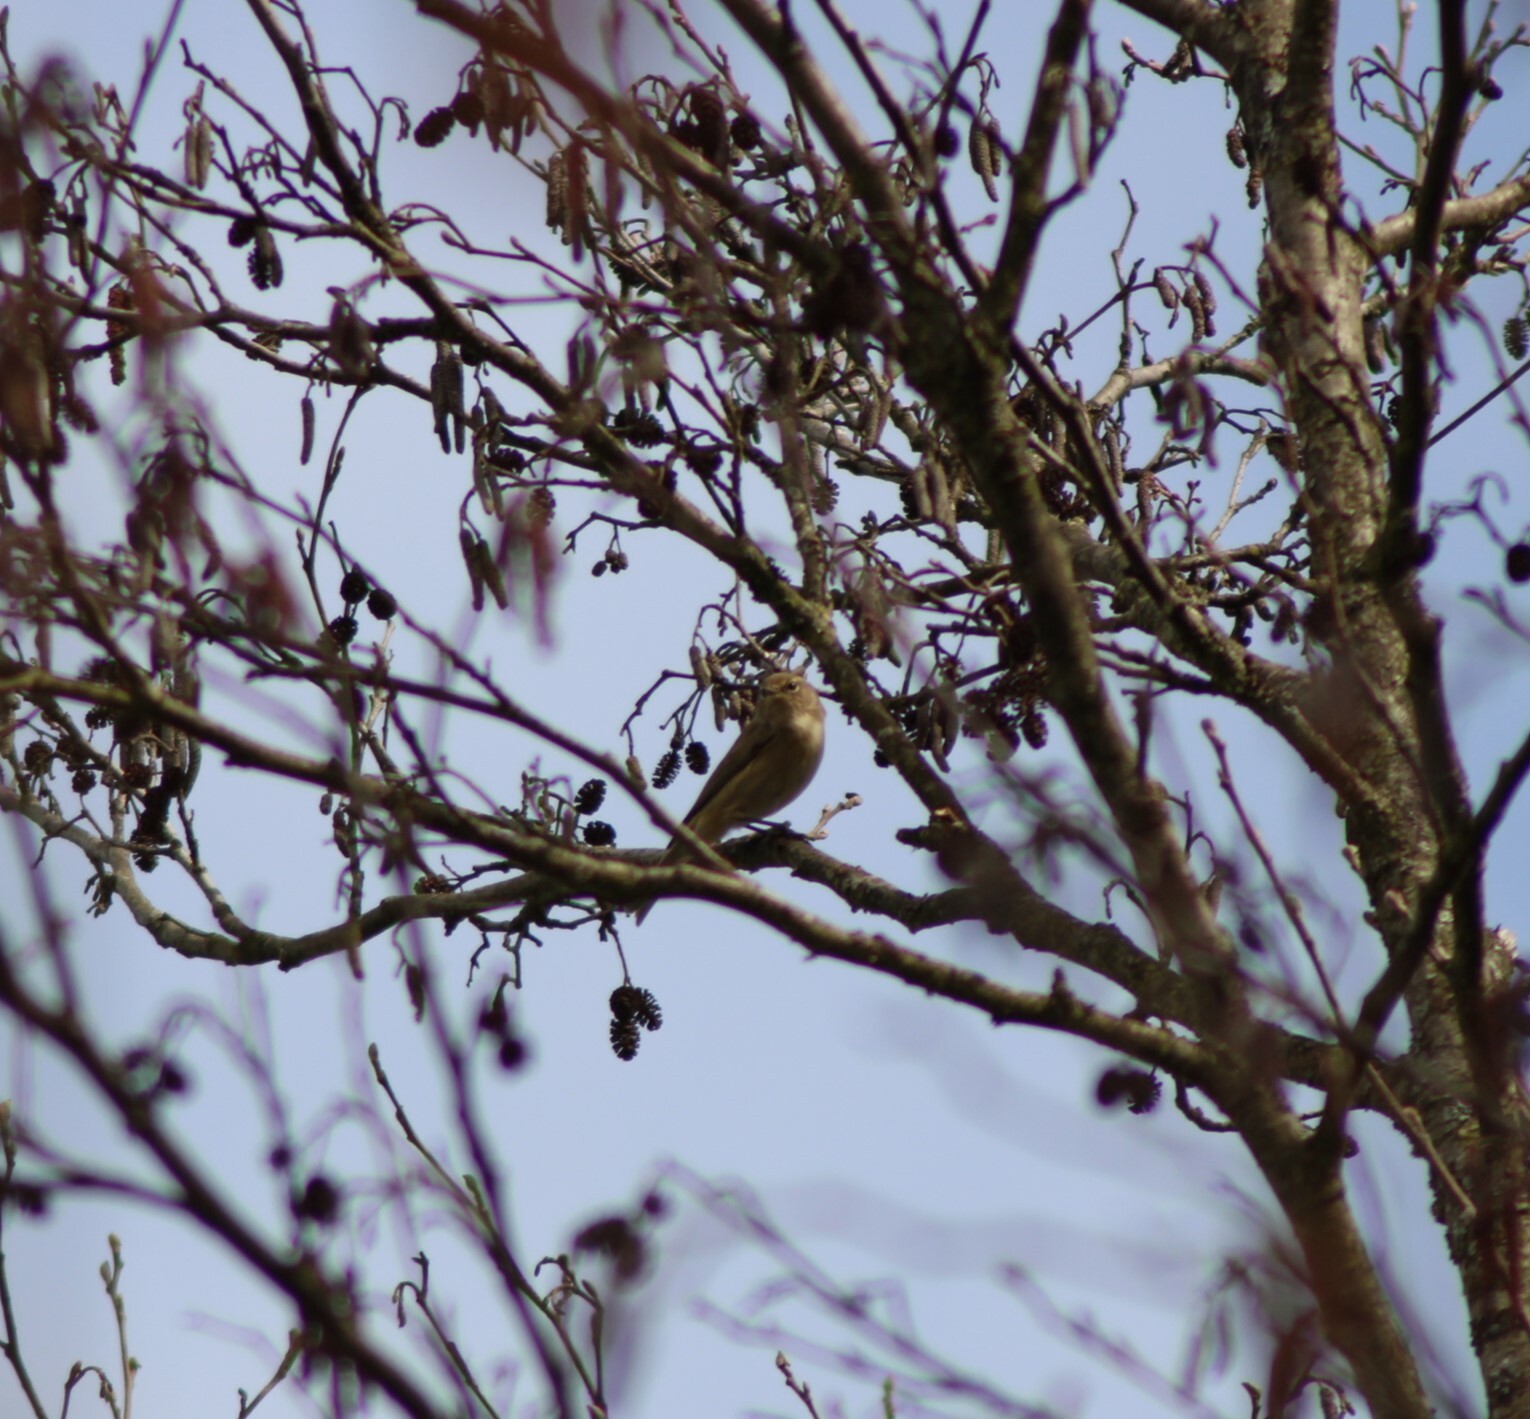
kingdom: Animalia
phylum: Chordata
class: Aves
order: Passeriformes
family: Phylloscopidae
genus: Phylloscopus
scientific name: Phylloscopus collybita
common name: Common chiffchaff
